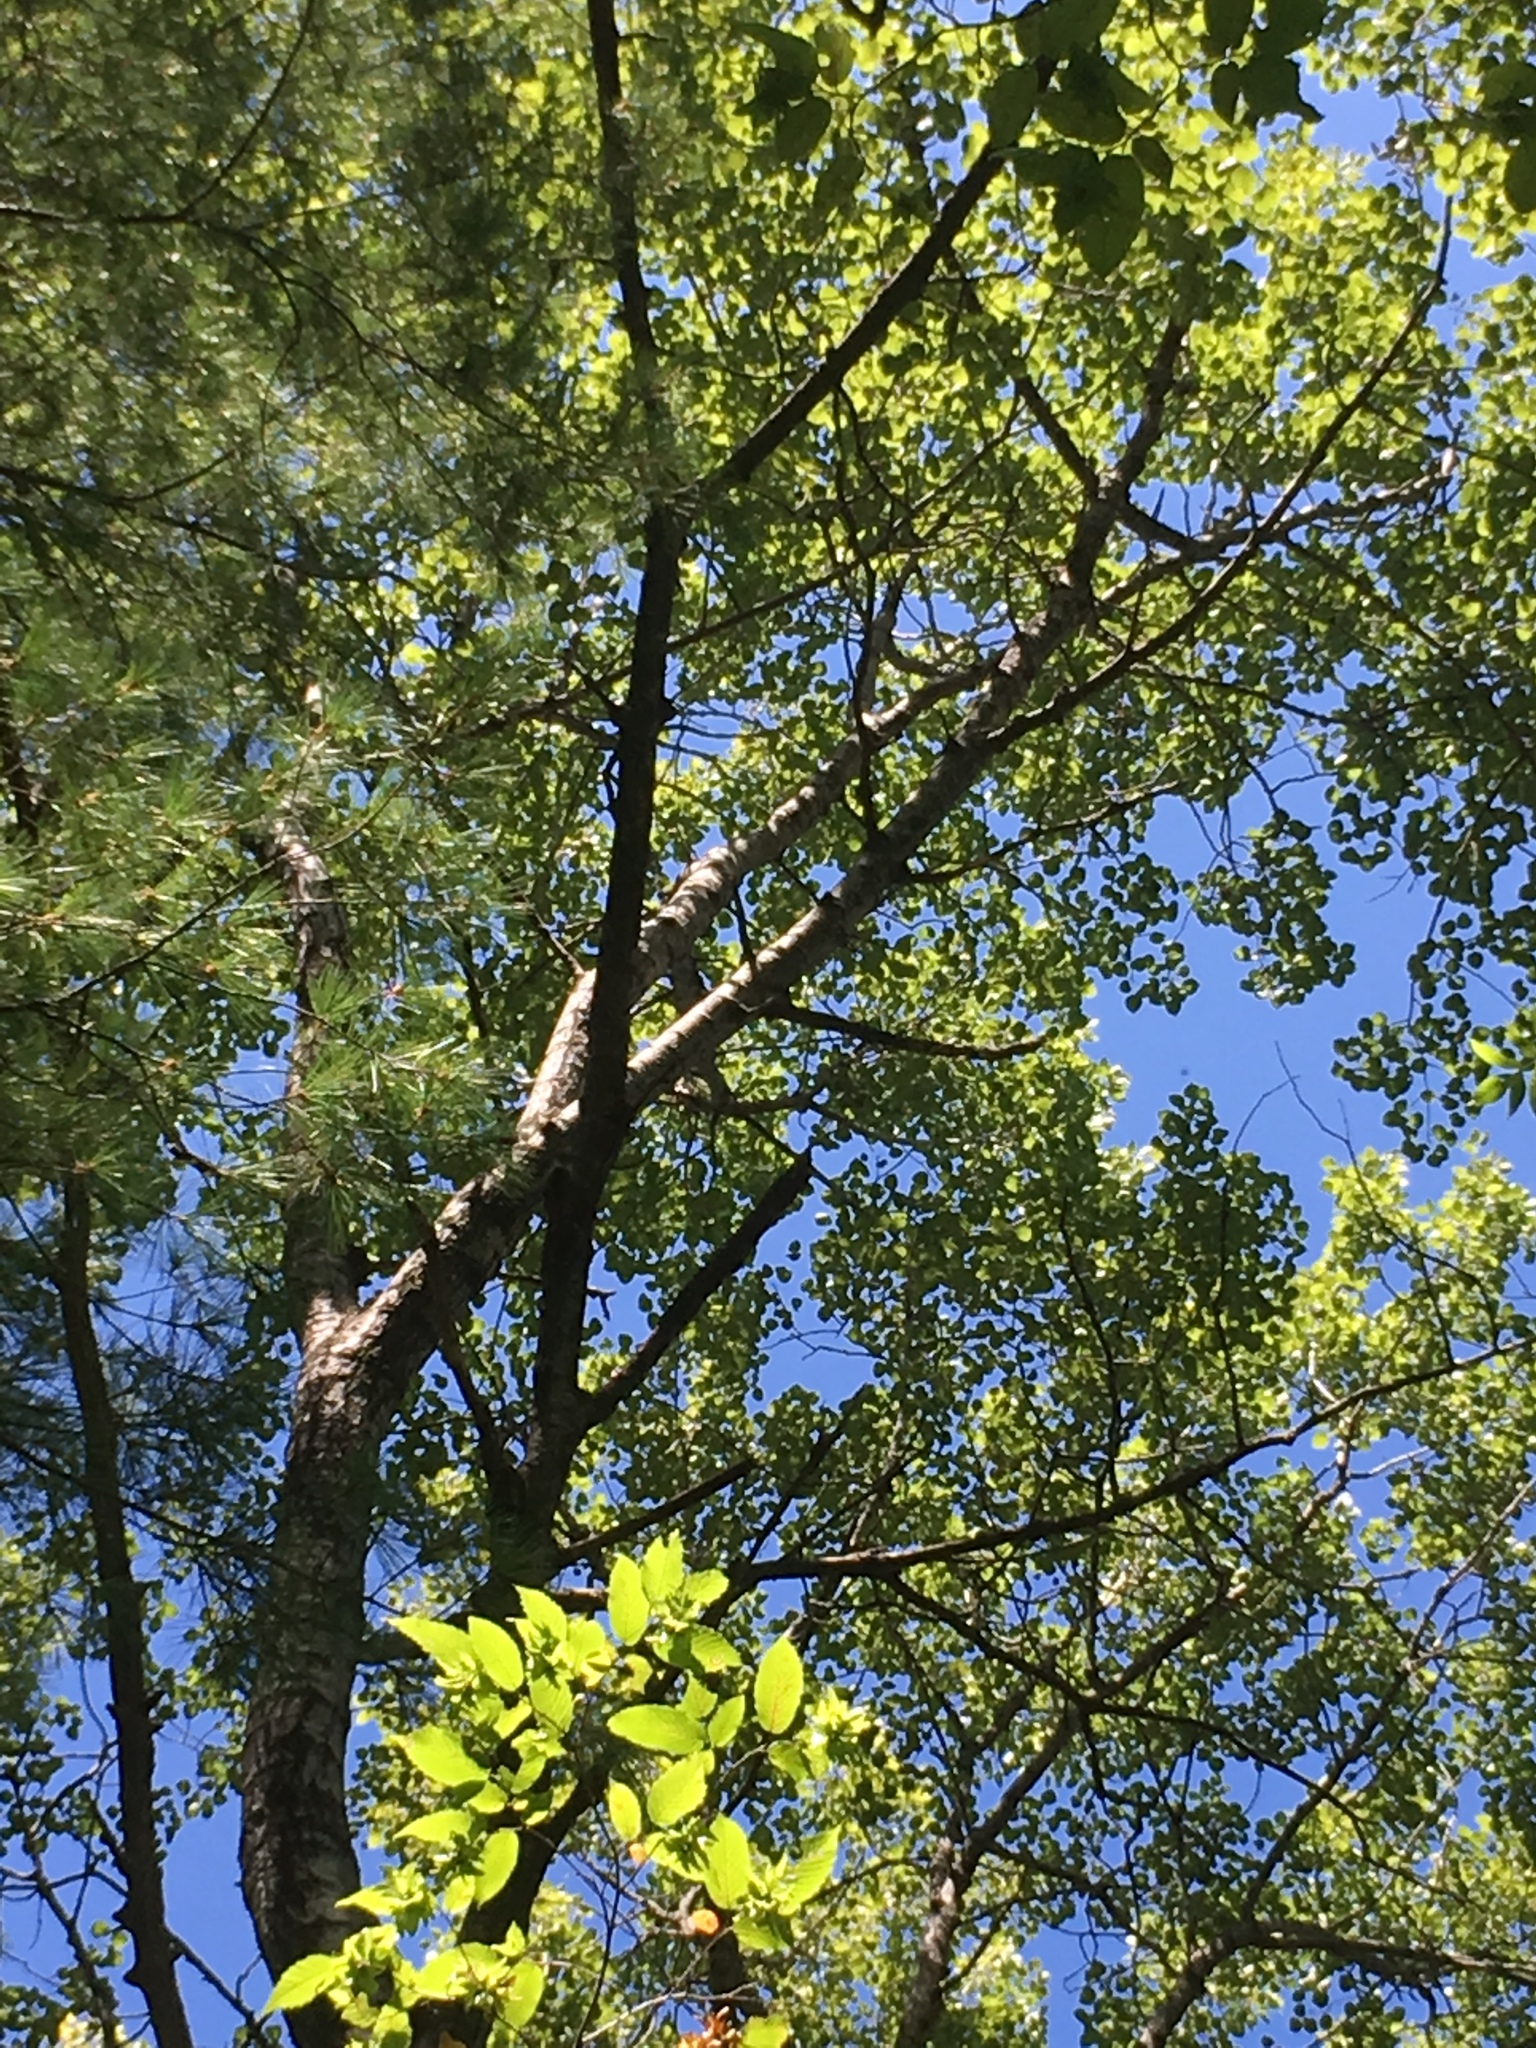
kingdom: Plantae
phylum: Tracheophyta
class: Magnoliopsida
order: Malpighiales
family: Salicaceae
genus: Populus
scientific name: Populus tremuloides
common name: Quaking aspen
